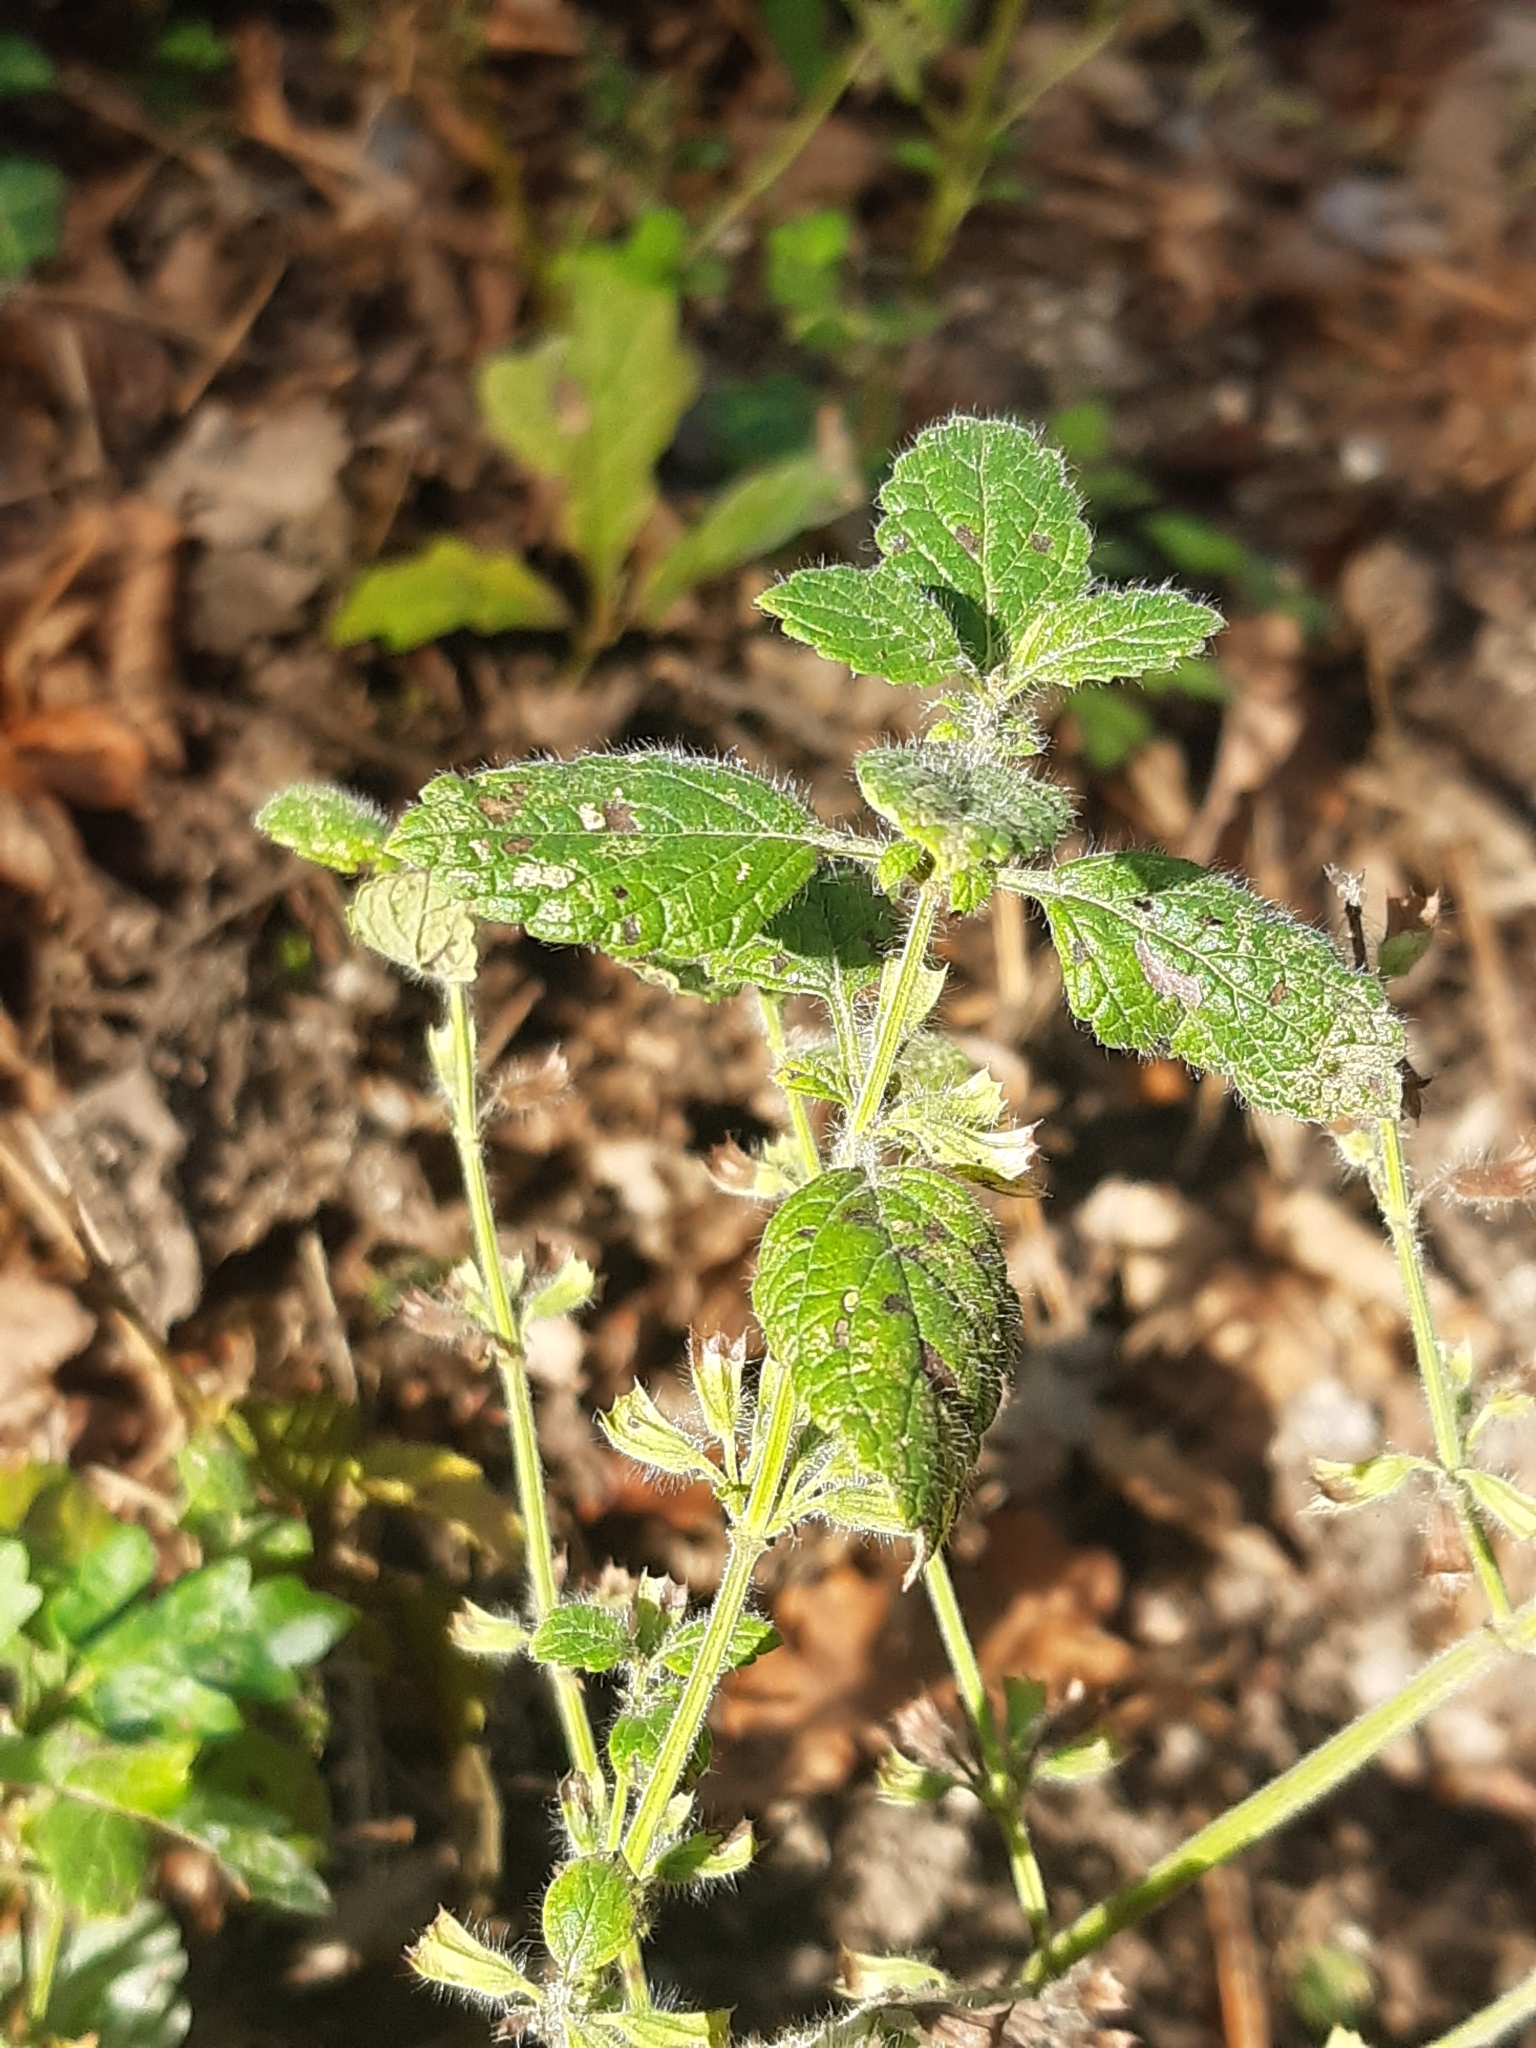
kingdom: Plantae
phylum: Tracheophyta
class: Magnoliopsida
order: Lamiales
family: Lamiaceae
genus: Melissa
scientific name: Melissa officinalis
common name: Balm
